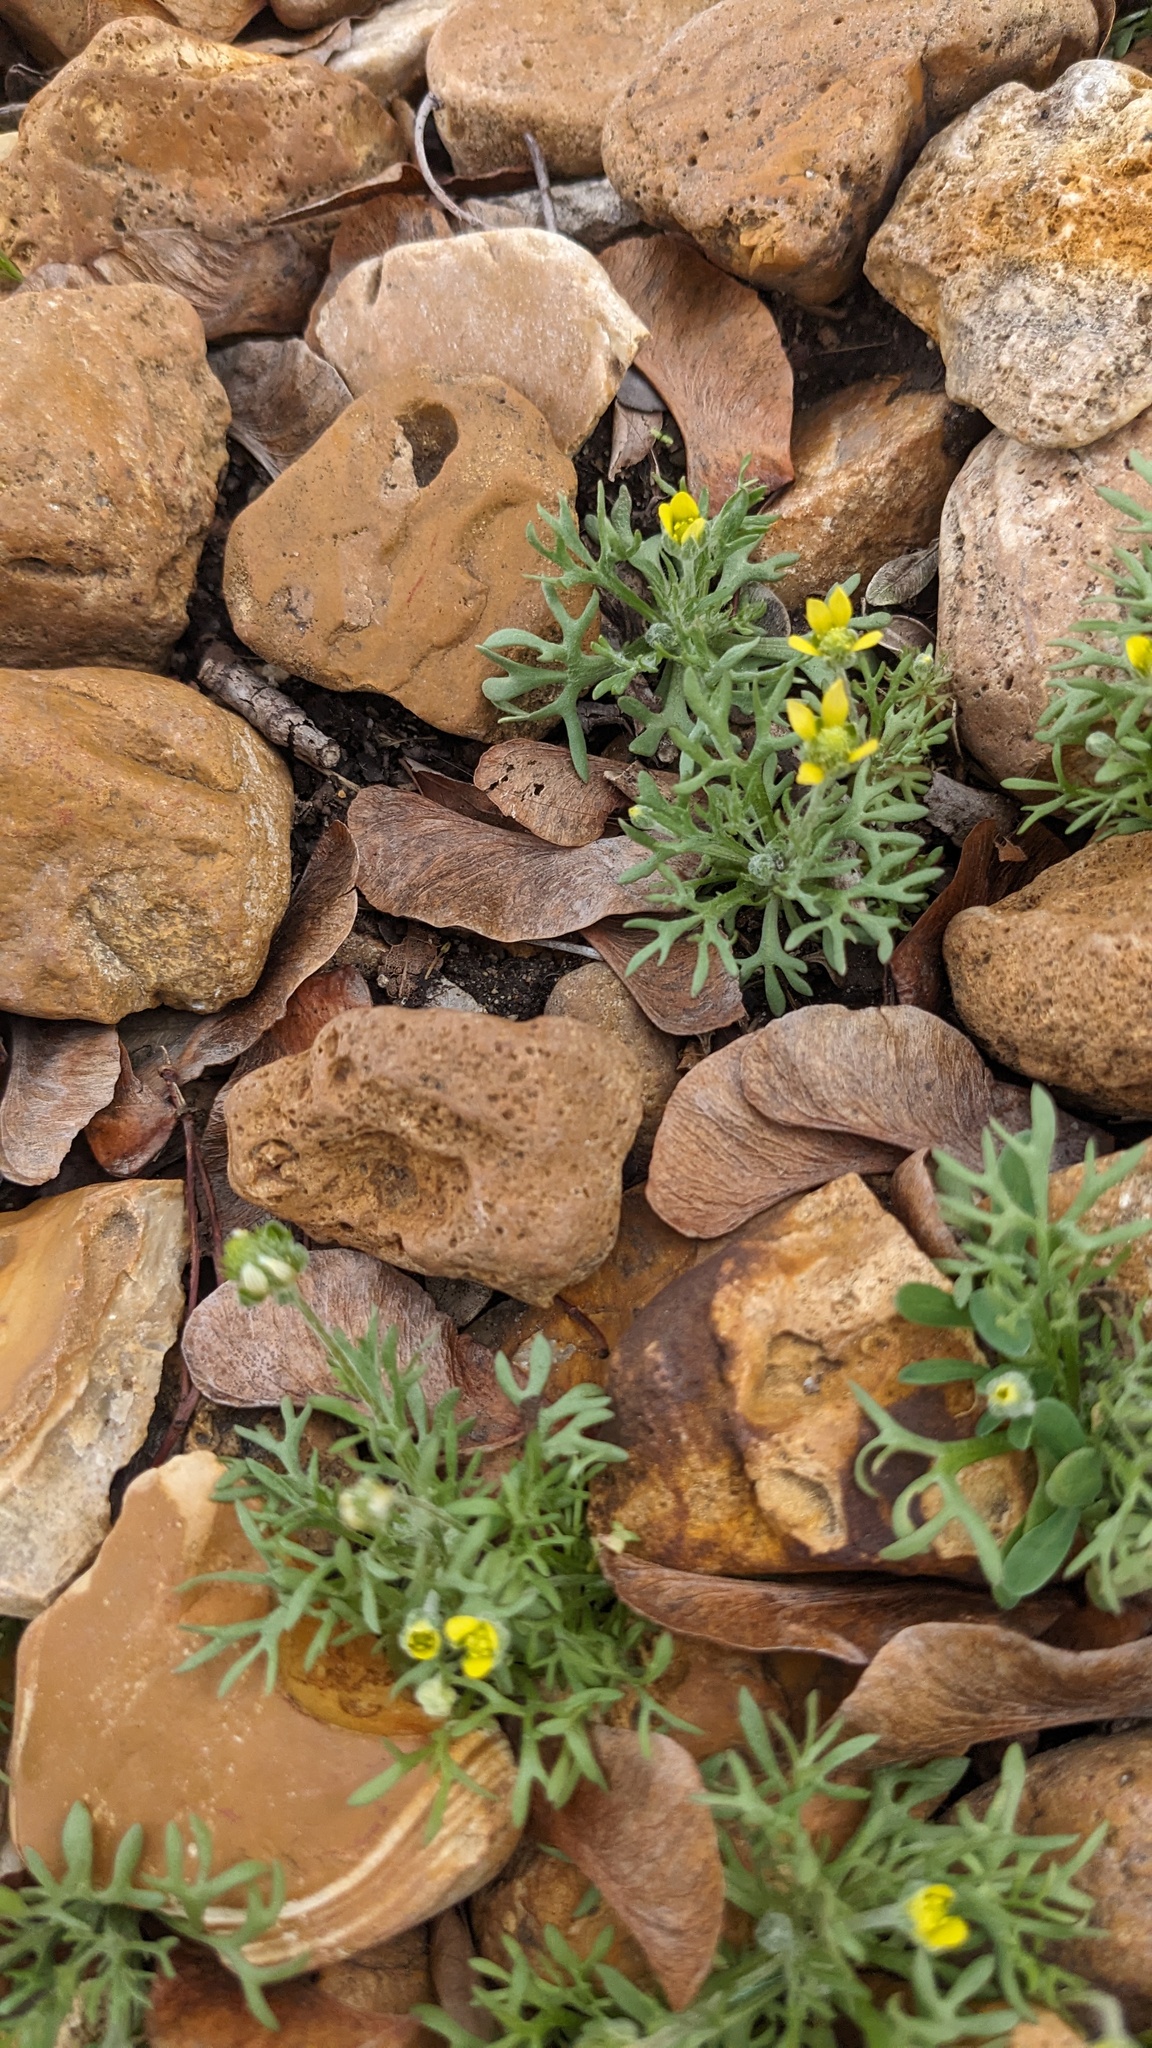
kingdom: Plantae
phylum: Tracheophyta
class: Magnoliopsida
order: Ranunculales
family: Ranunculaceae
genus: Ceratocephala
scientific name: Ceratocephala orthoceras
